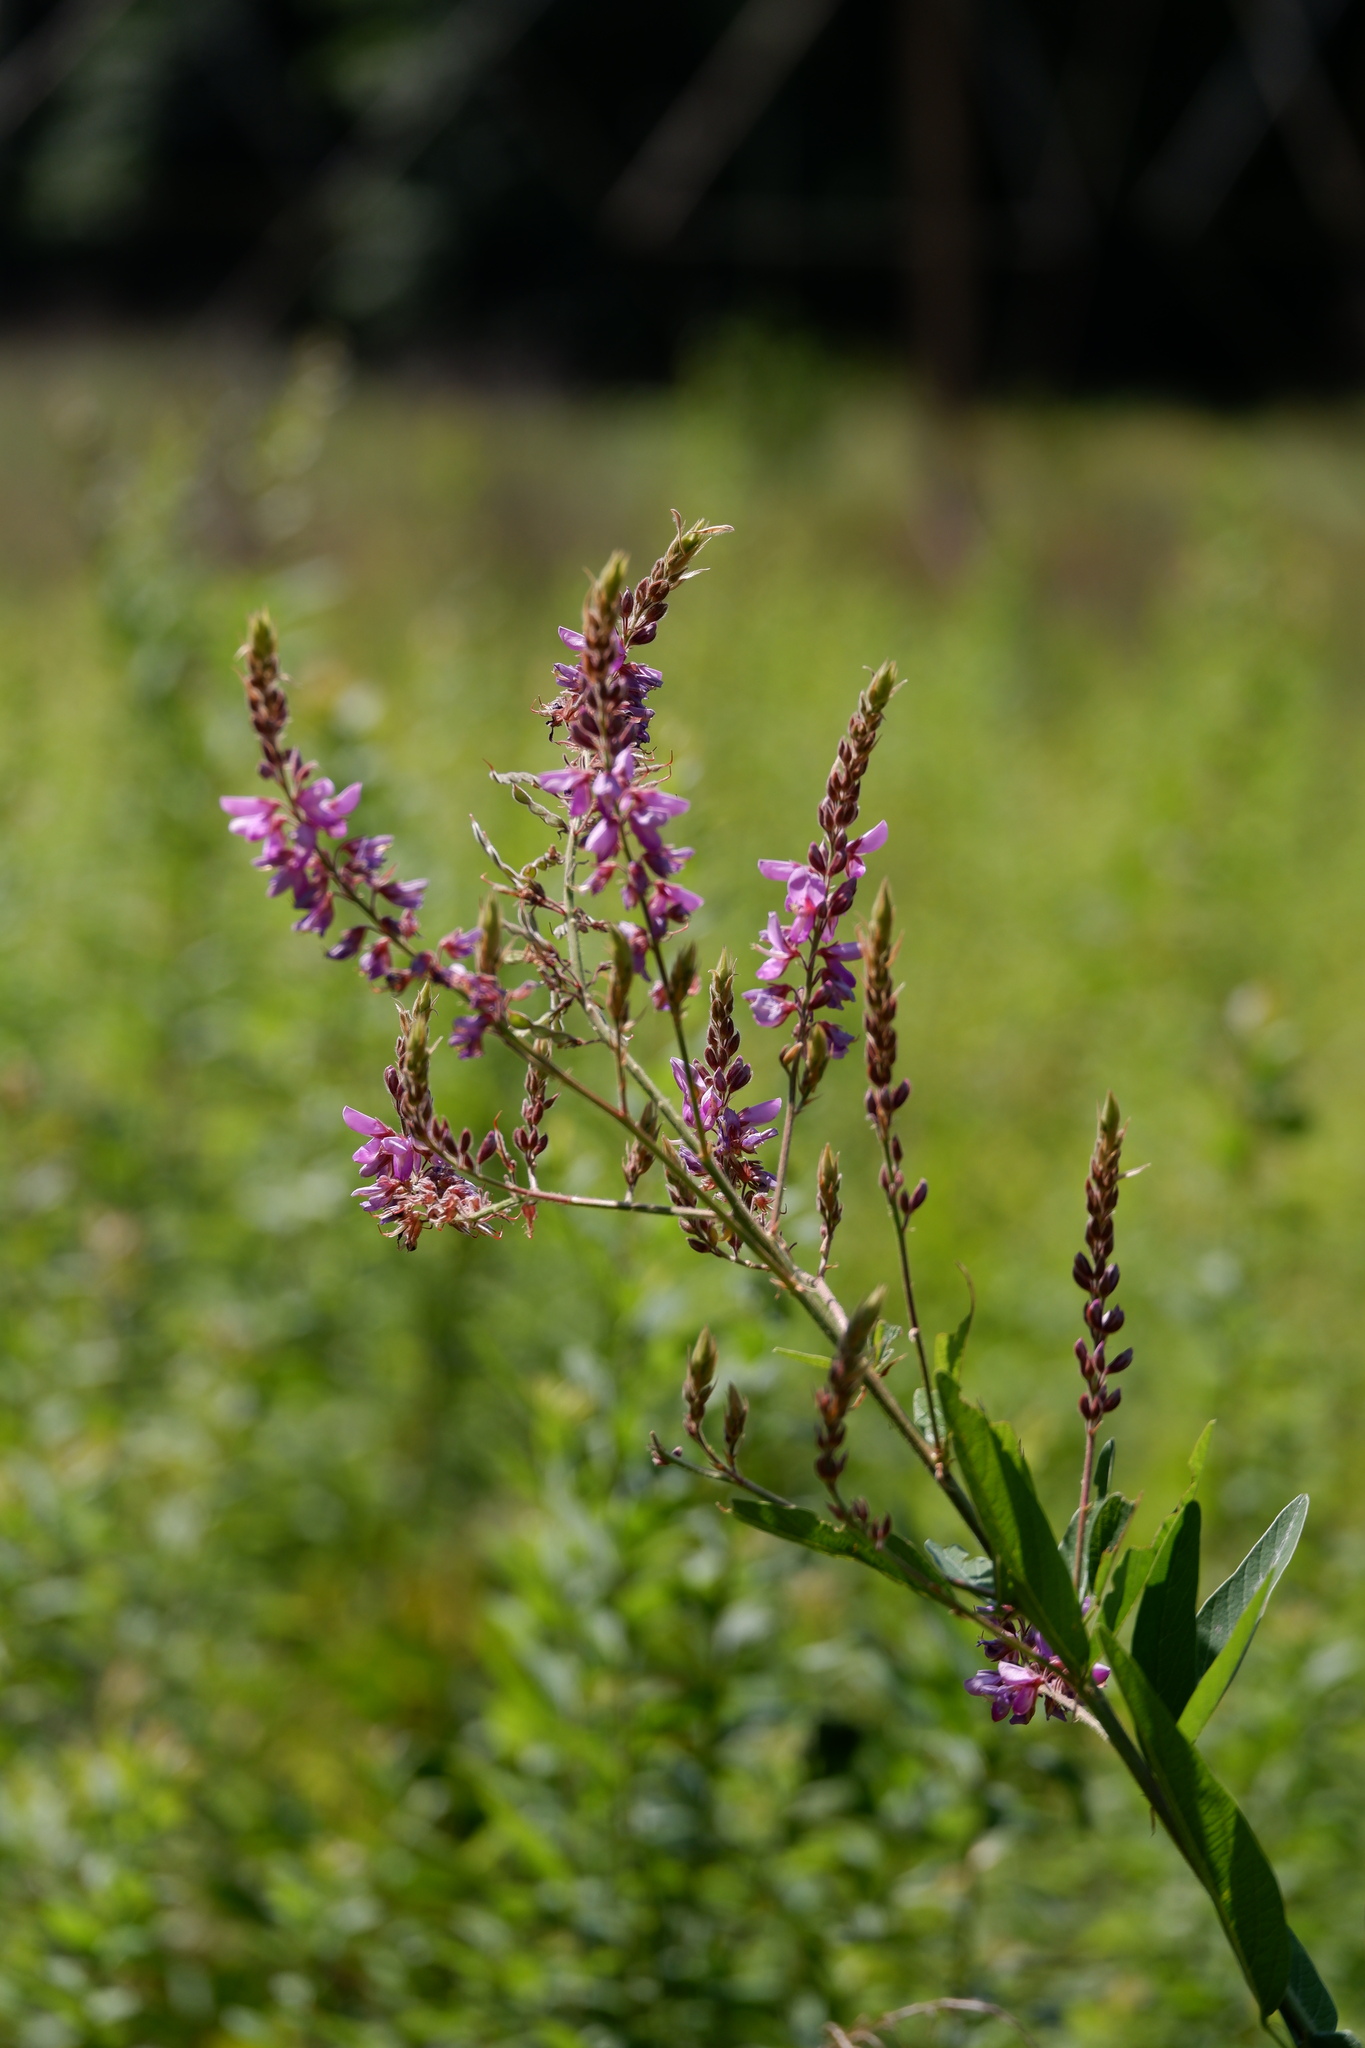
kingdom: Plantae
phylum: Tracheophyta
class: Magnoliopsida
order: Fabales
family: Fabaceae
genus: Desmodium
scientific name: Desmodium canadense
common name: Canada tick-trefoil
